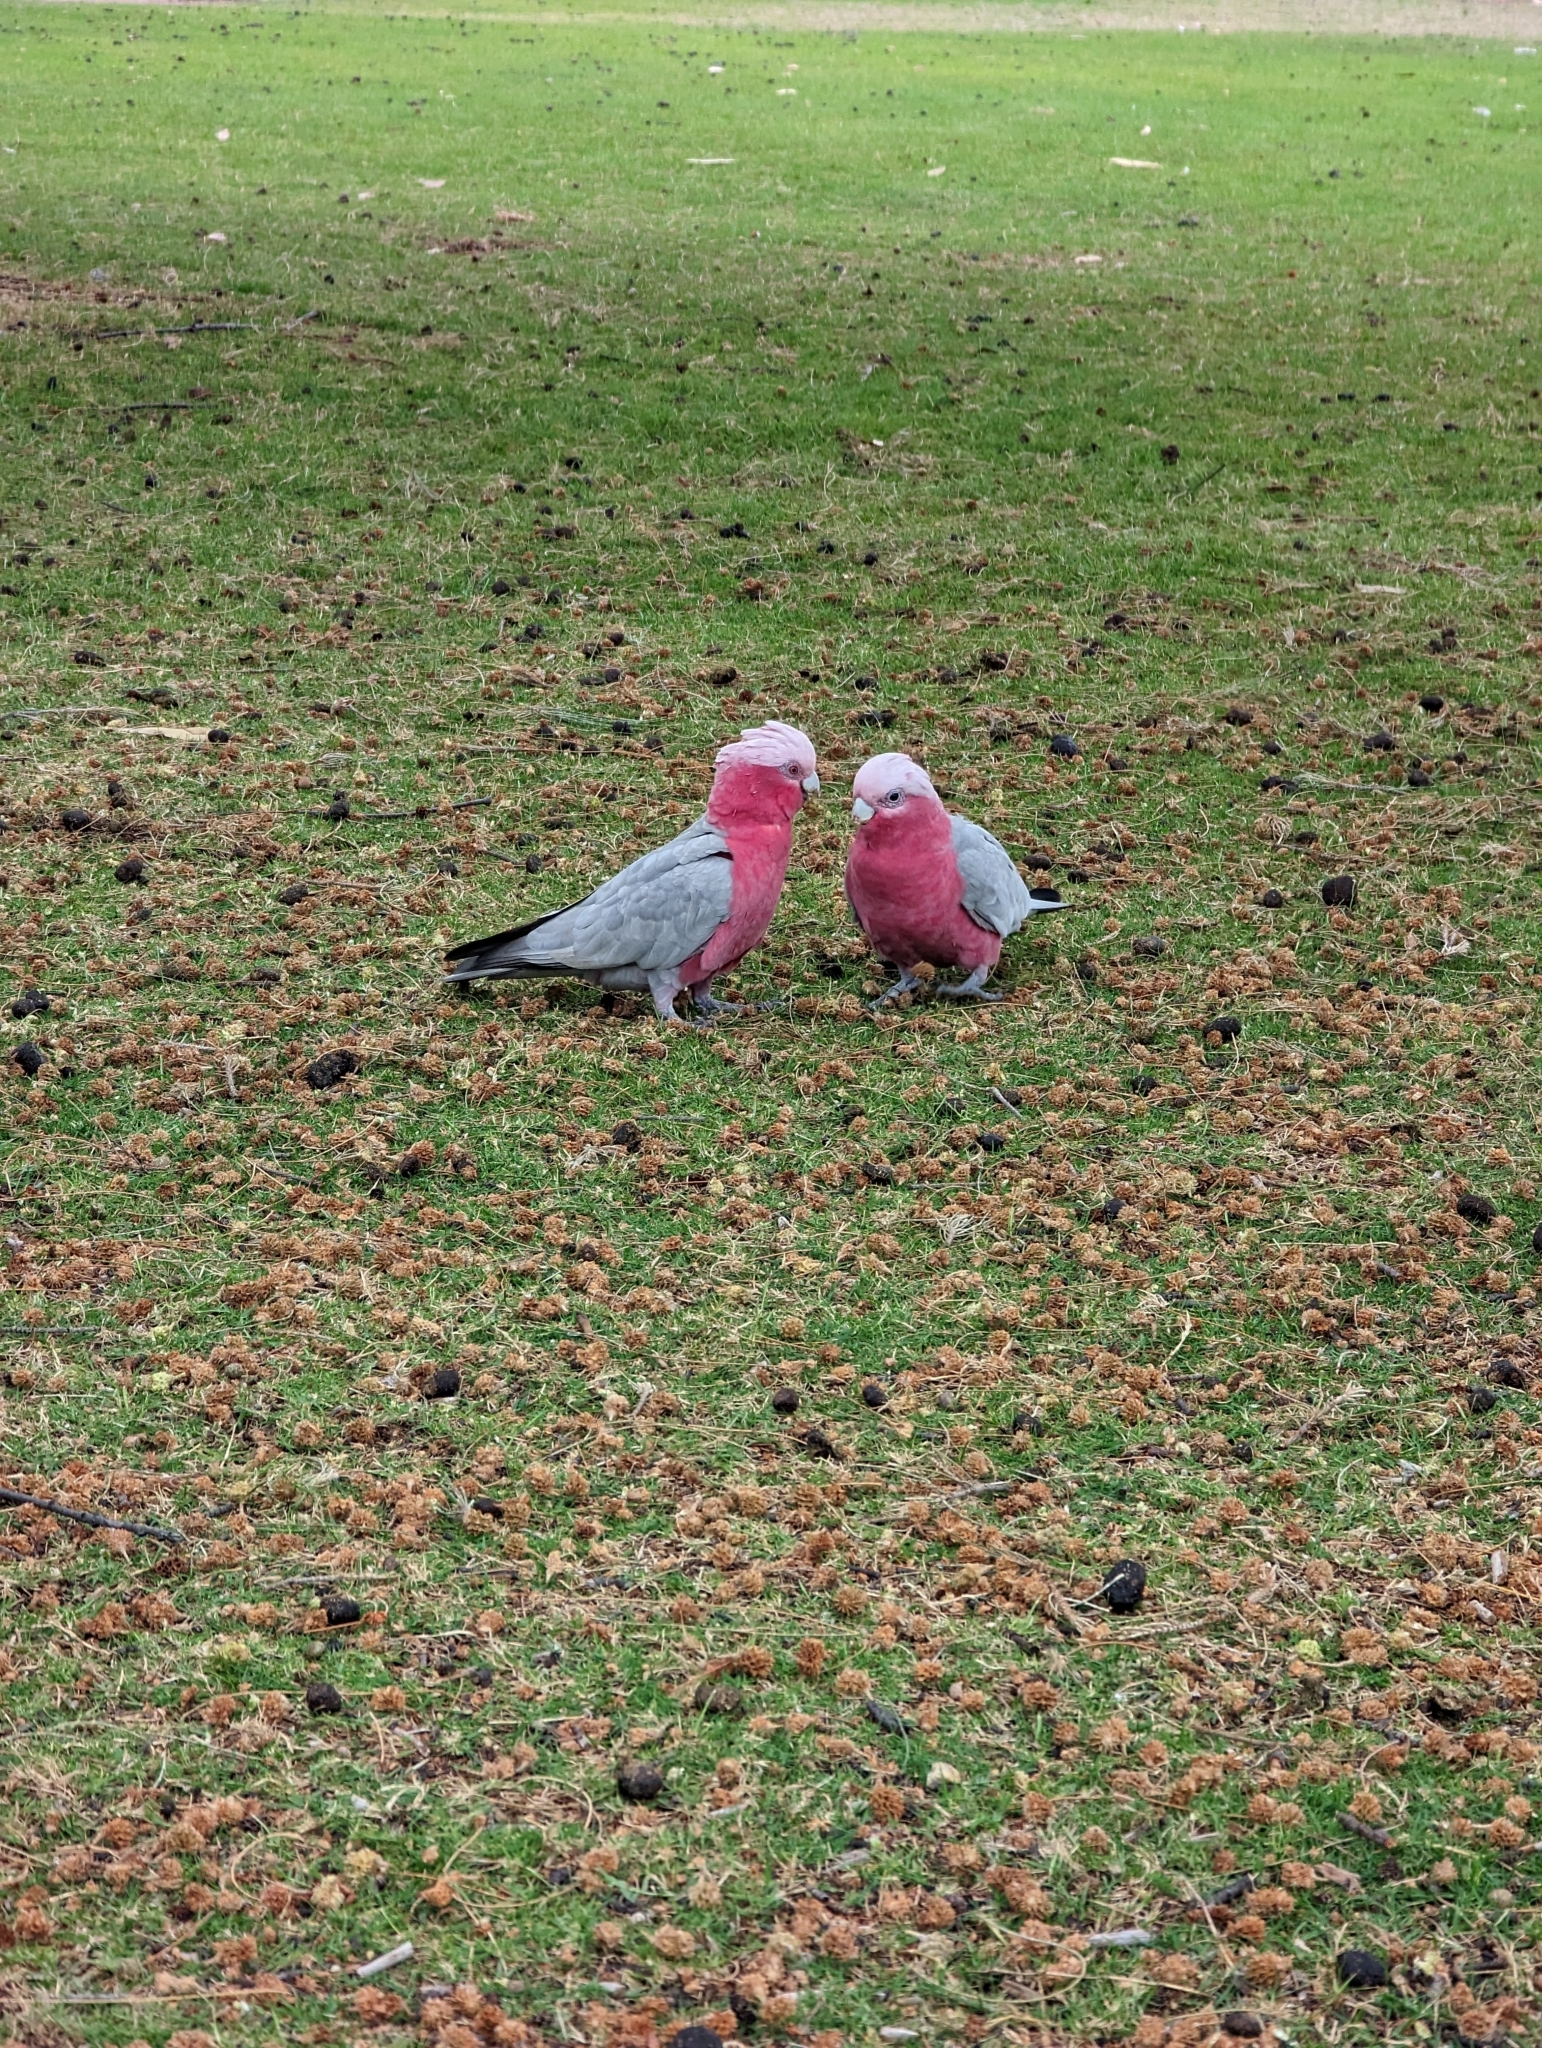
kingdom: Animalia
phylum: Chordata
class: Aves
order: Psittaciformes
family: Psittacidae
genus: Eolophus
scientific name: Eolophus roseicapilla
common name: Galah
